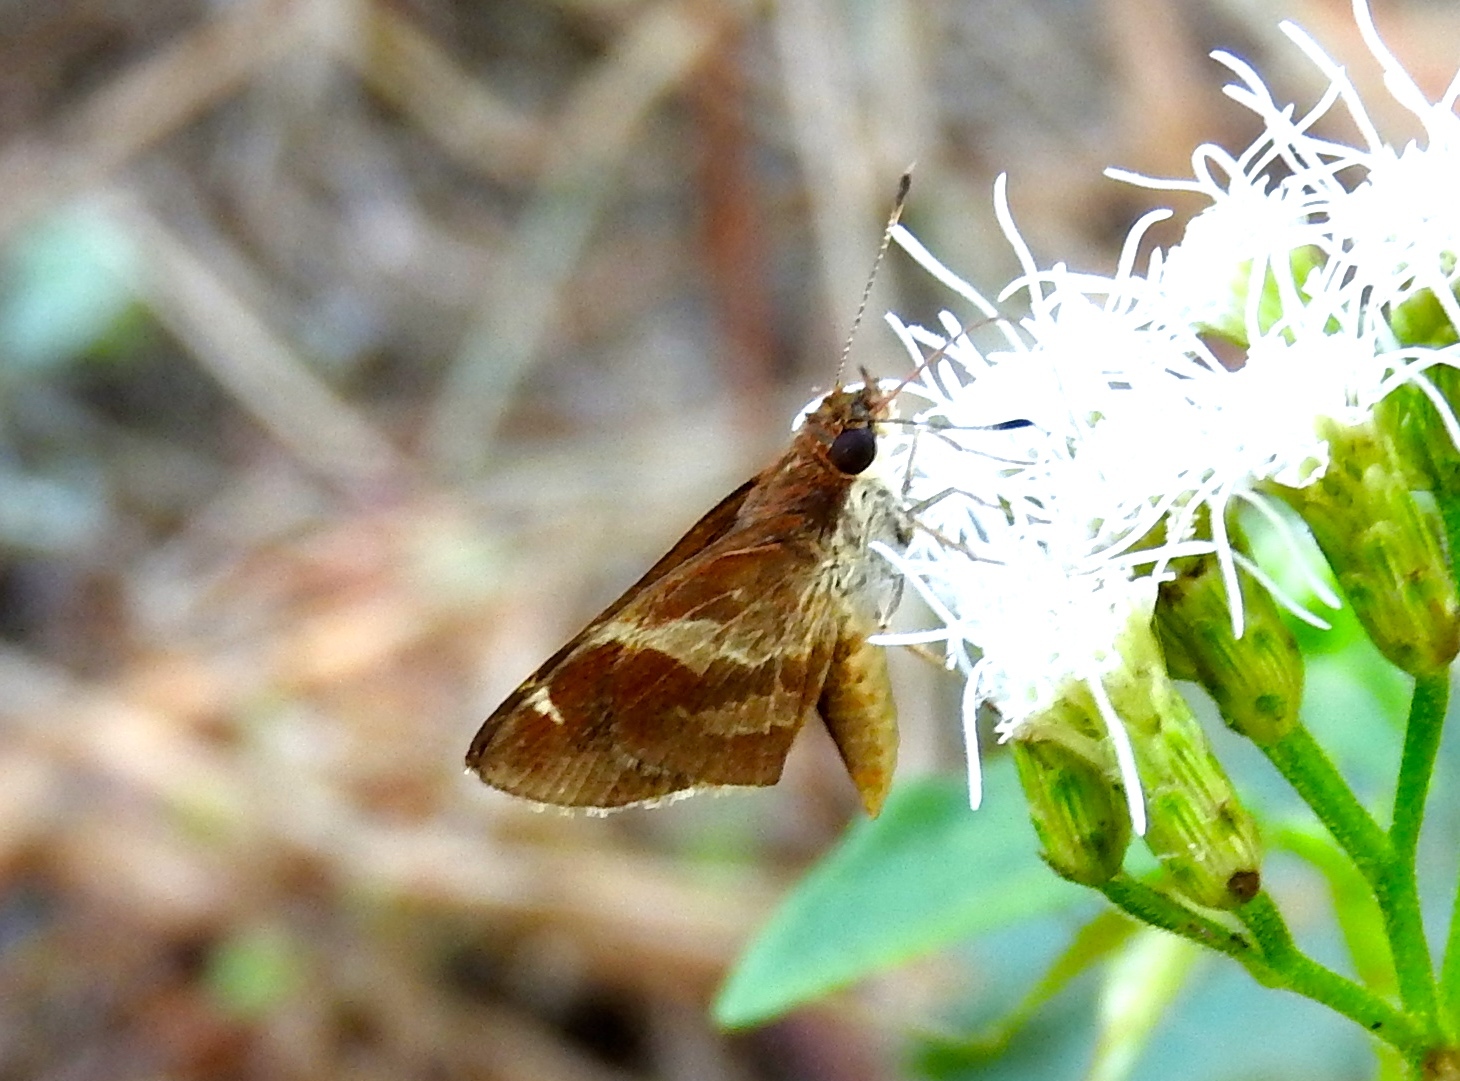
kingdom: Animalia
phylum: Arthropoda
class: Insecta
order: Lepidoptera
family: Hesperiidae
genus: Moeris
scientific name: Moeris crispinus
